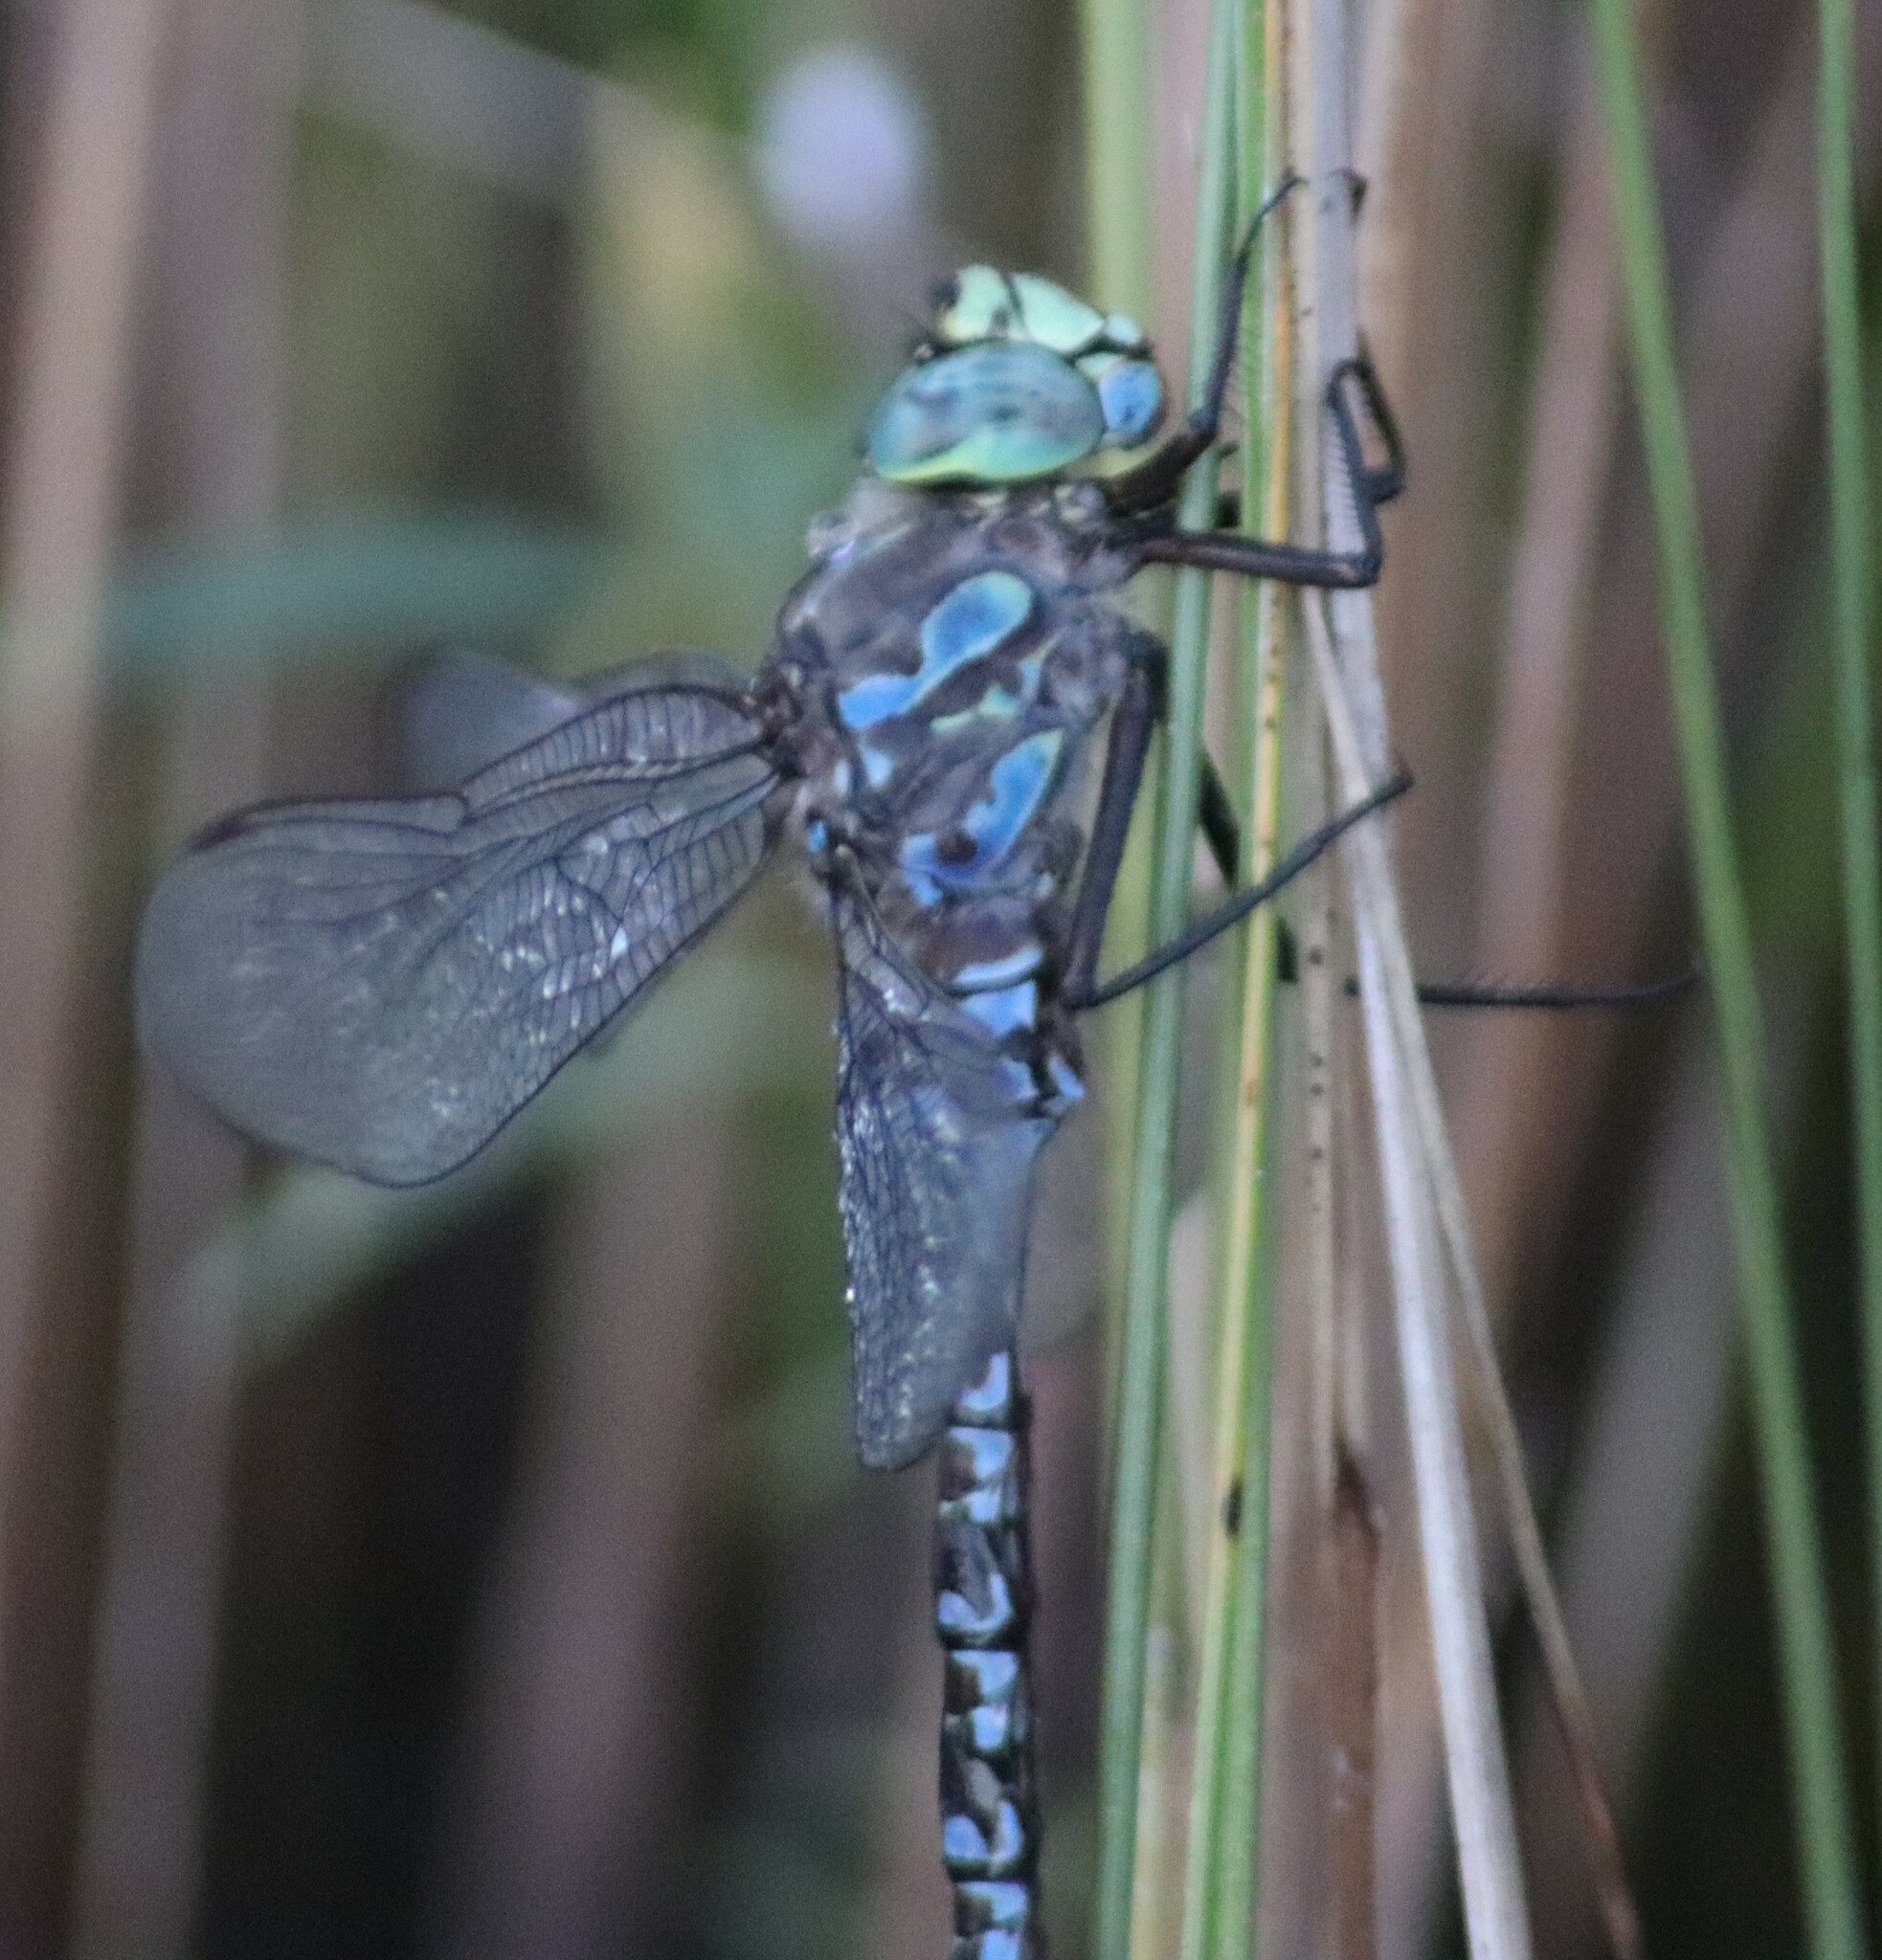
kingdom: Animalia
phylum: Arthropoda
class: Insecta
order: Odonata
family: Aeshnidae
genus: Aeshna
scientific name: Aeshna eremita
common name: Lake darner
